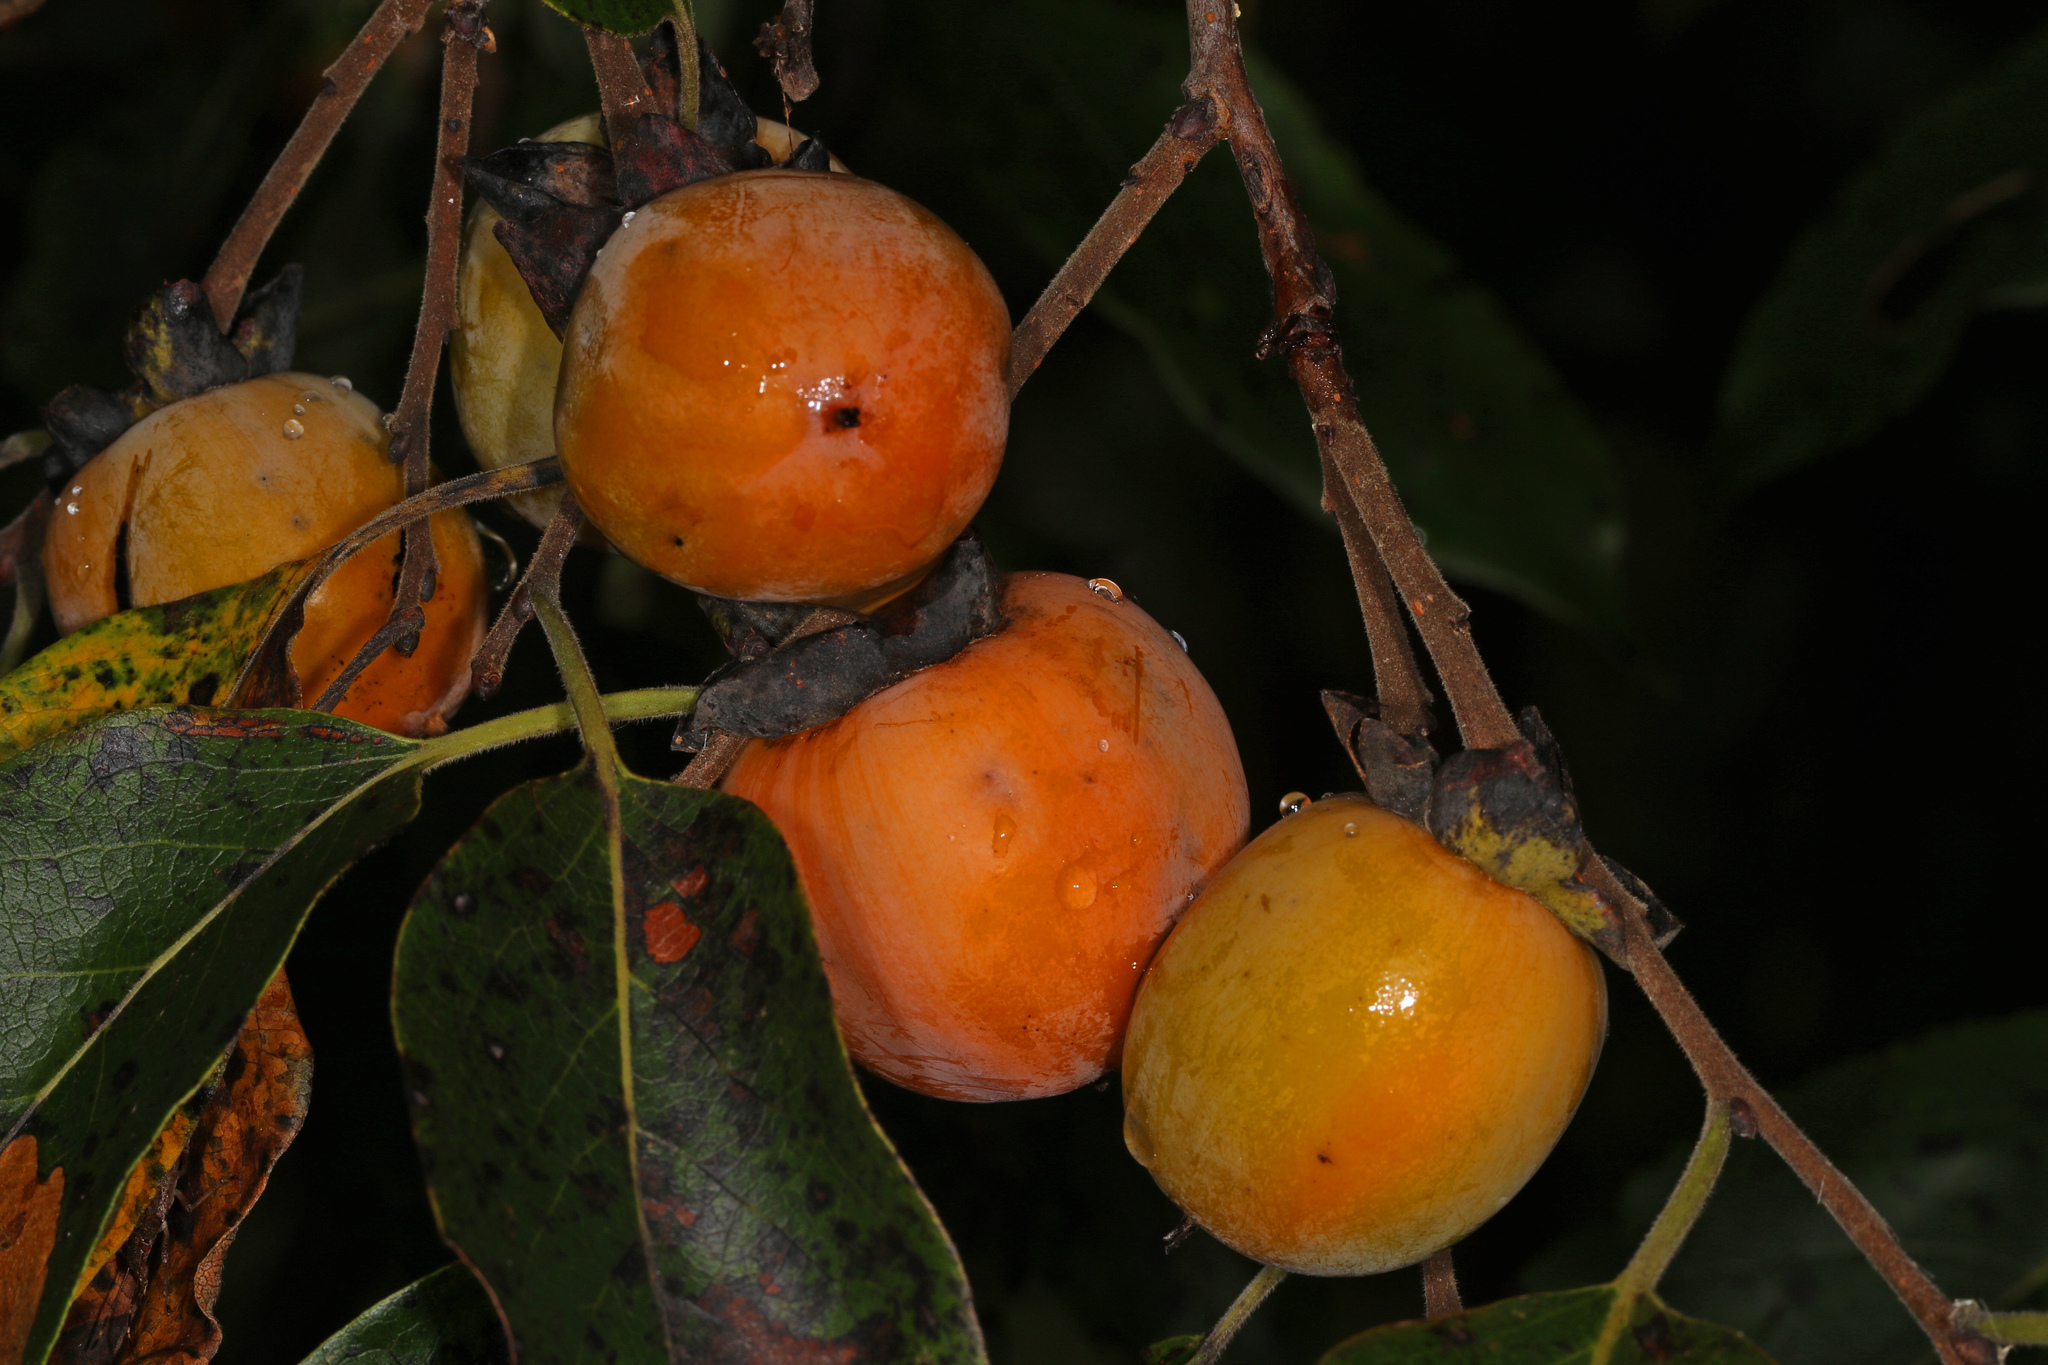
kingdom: Plantae
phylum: Tracheophyta
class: Magnoliopsida
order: Ericales
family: Ebenaceae
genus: Diospyros
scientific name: Diospyros virginiana
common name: Persimmon
